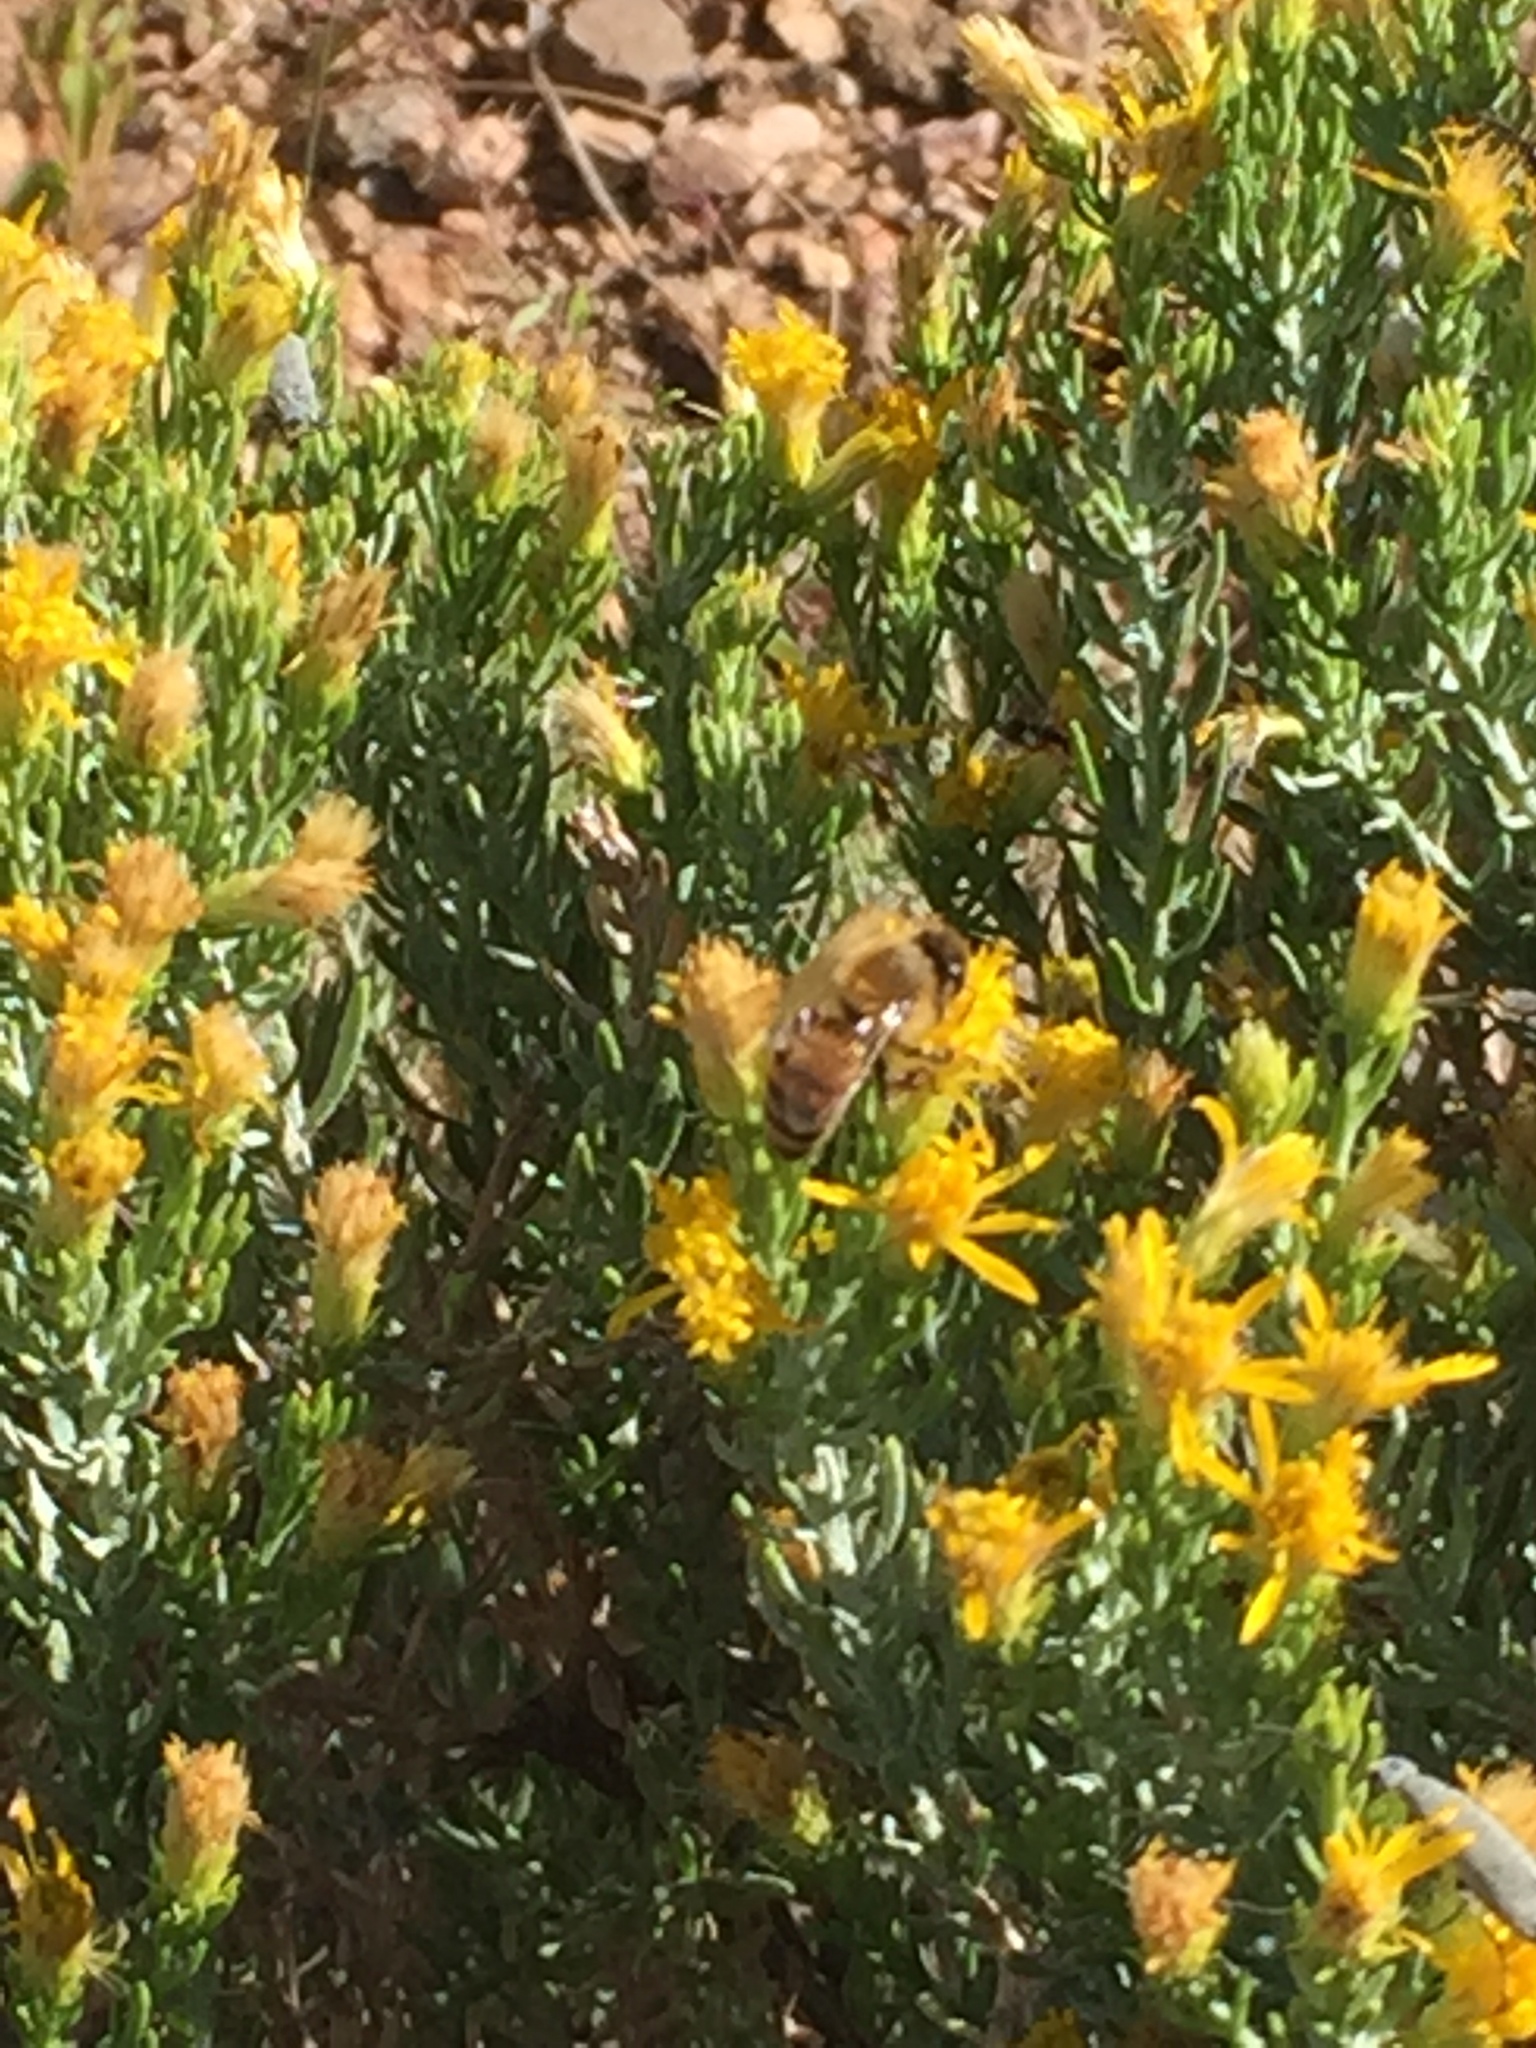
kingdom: Animalia
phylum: Arthropoda
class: Insecta
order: Hymenoptera
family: Apidae
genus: Apis
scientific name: Apis mellifera
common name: Honey bee
